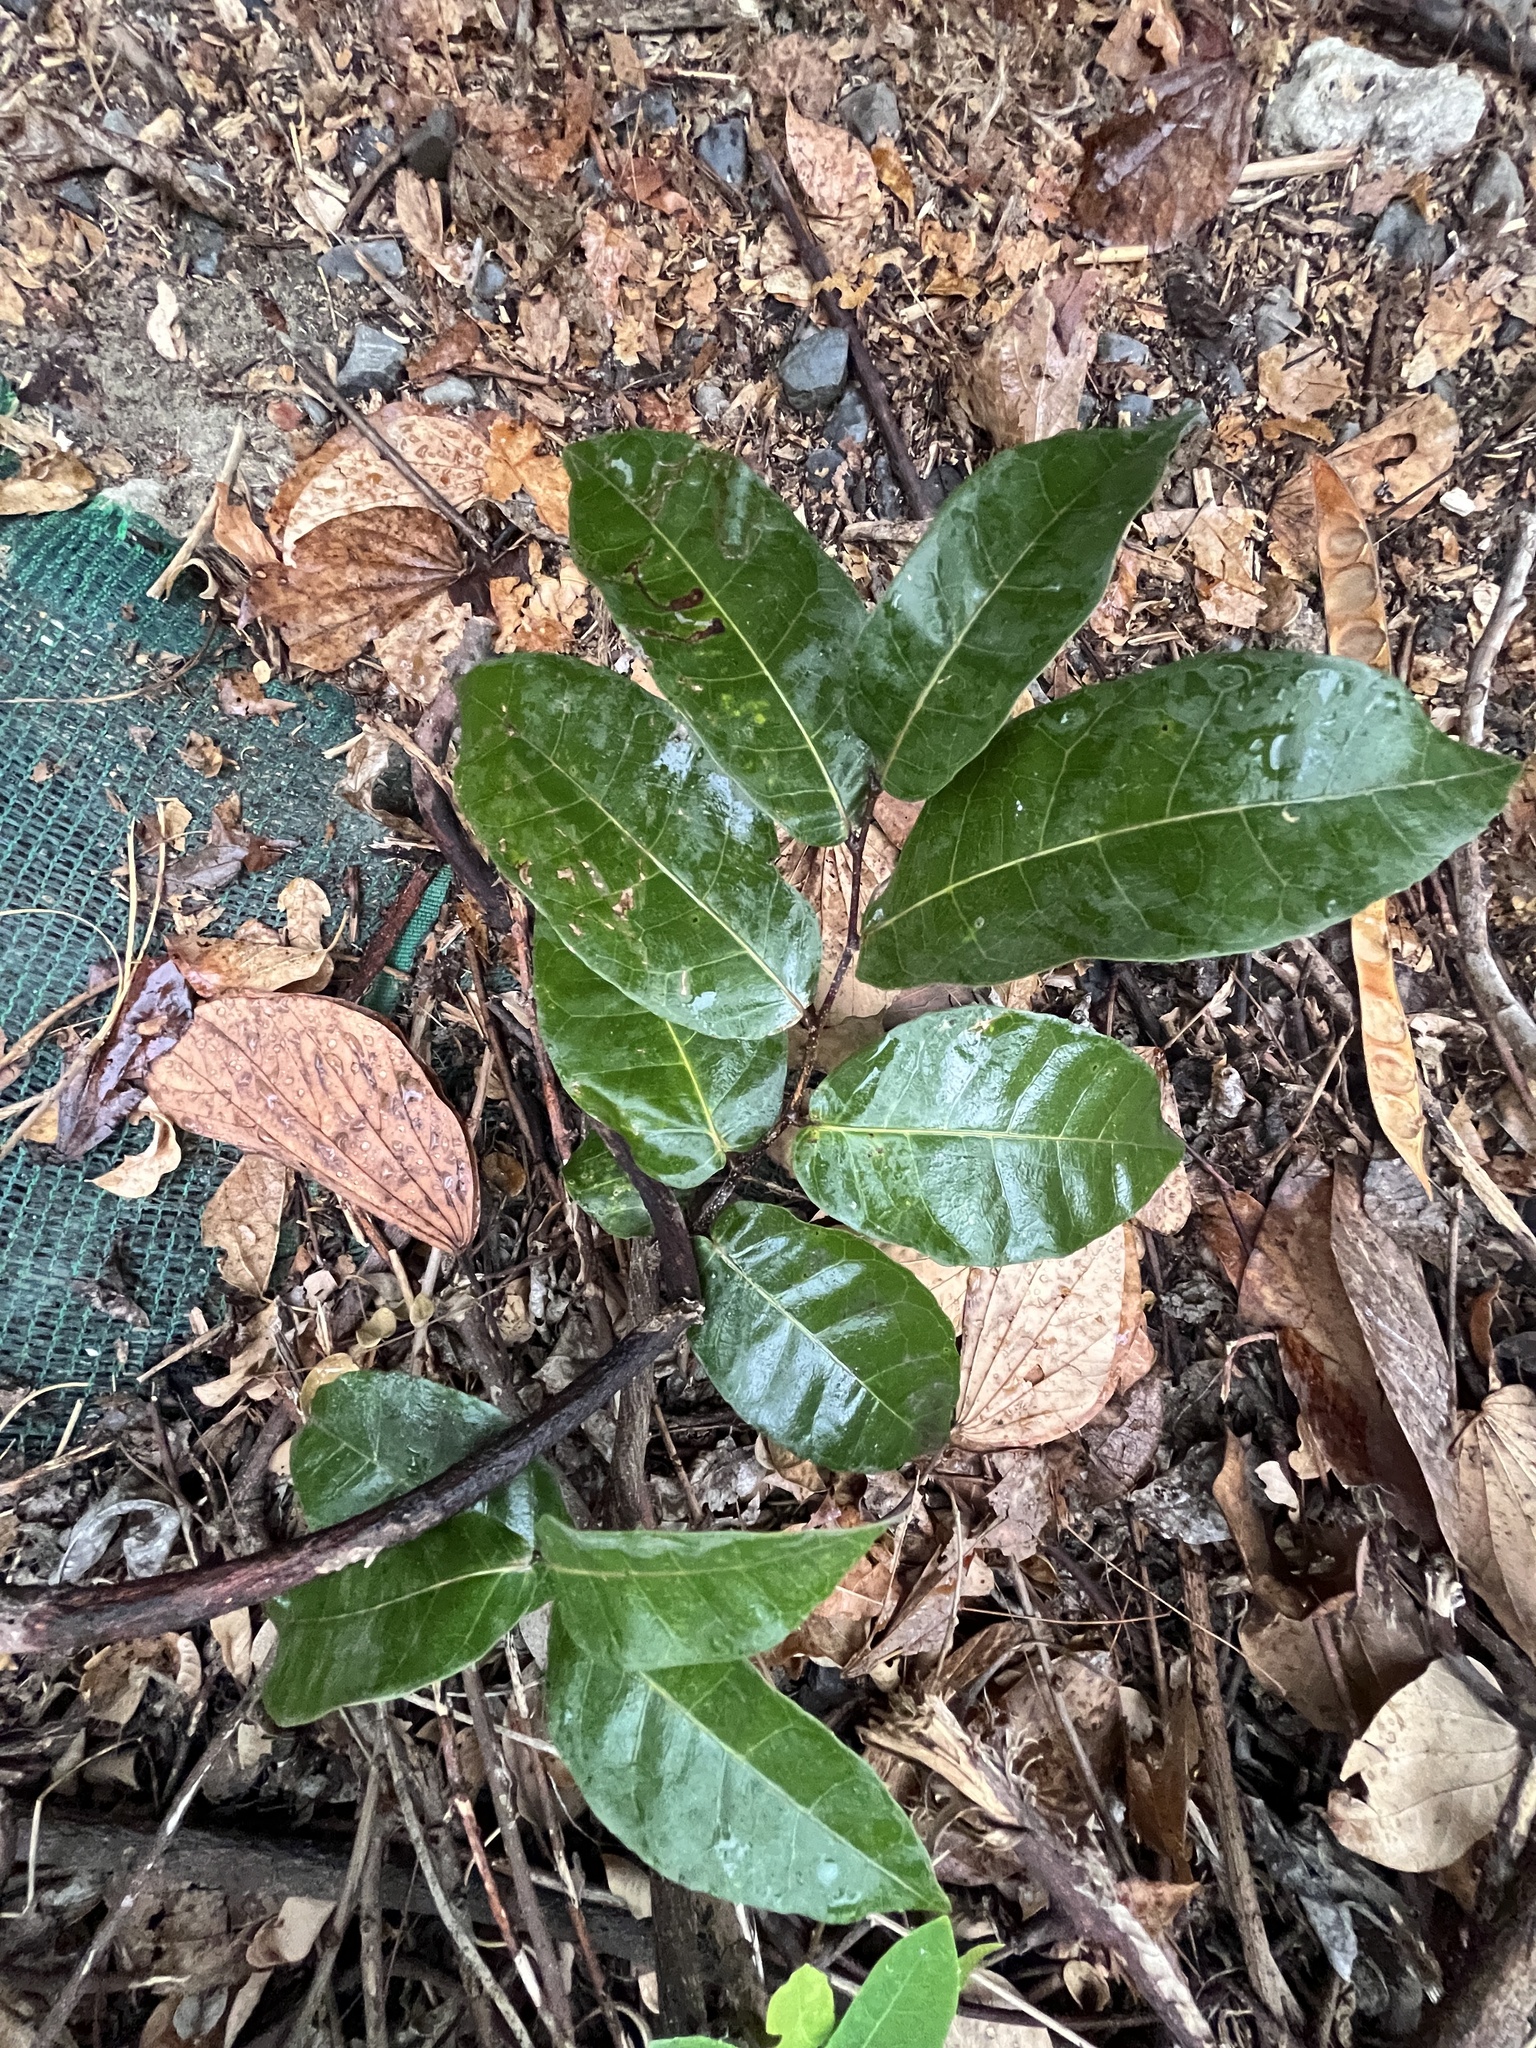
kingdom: Plantae
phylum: Tracheophyta
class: Magnoliopsida
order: Rosales
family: Moraceae
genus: Malaisia
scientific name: Malaisia scandens
